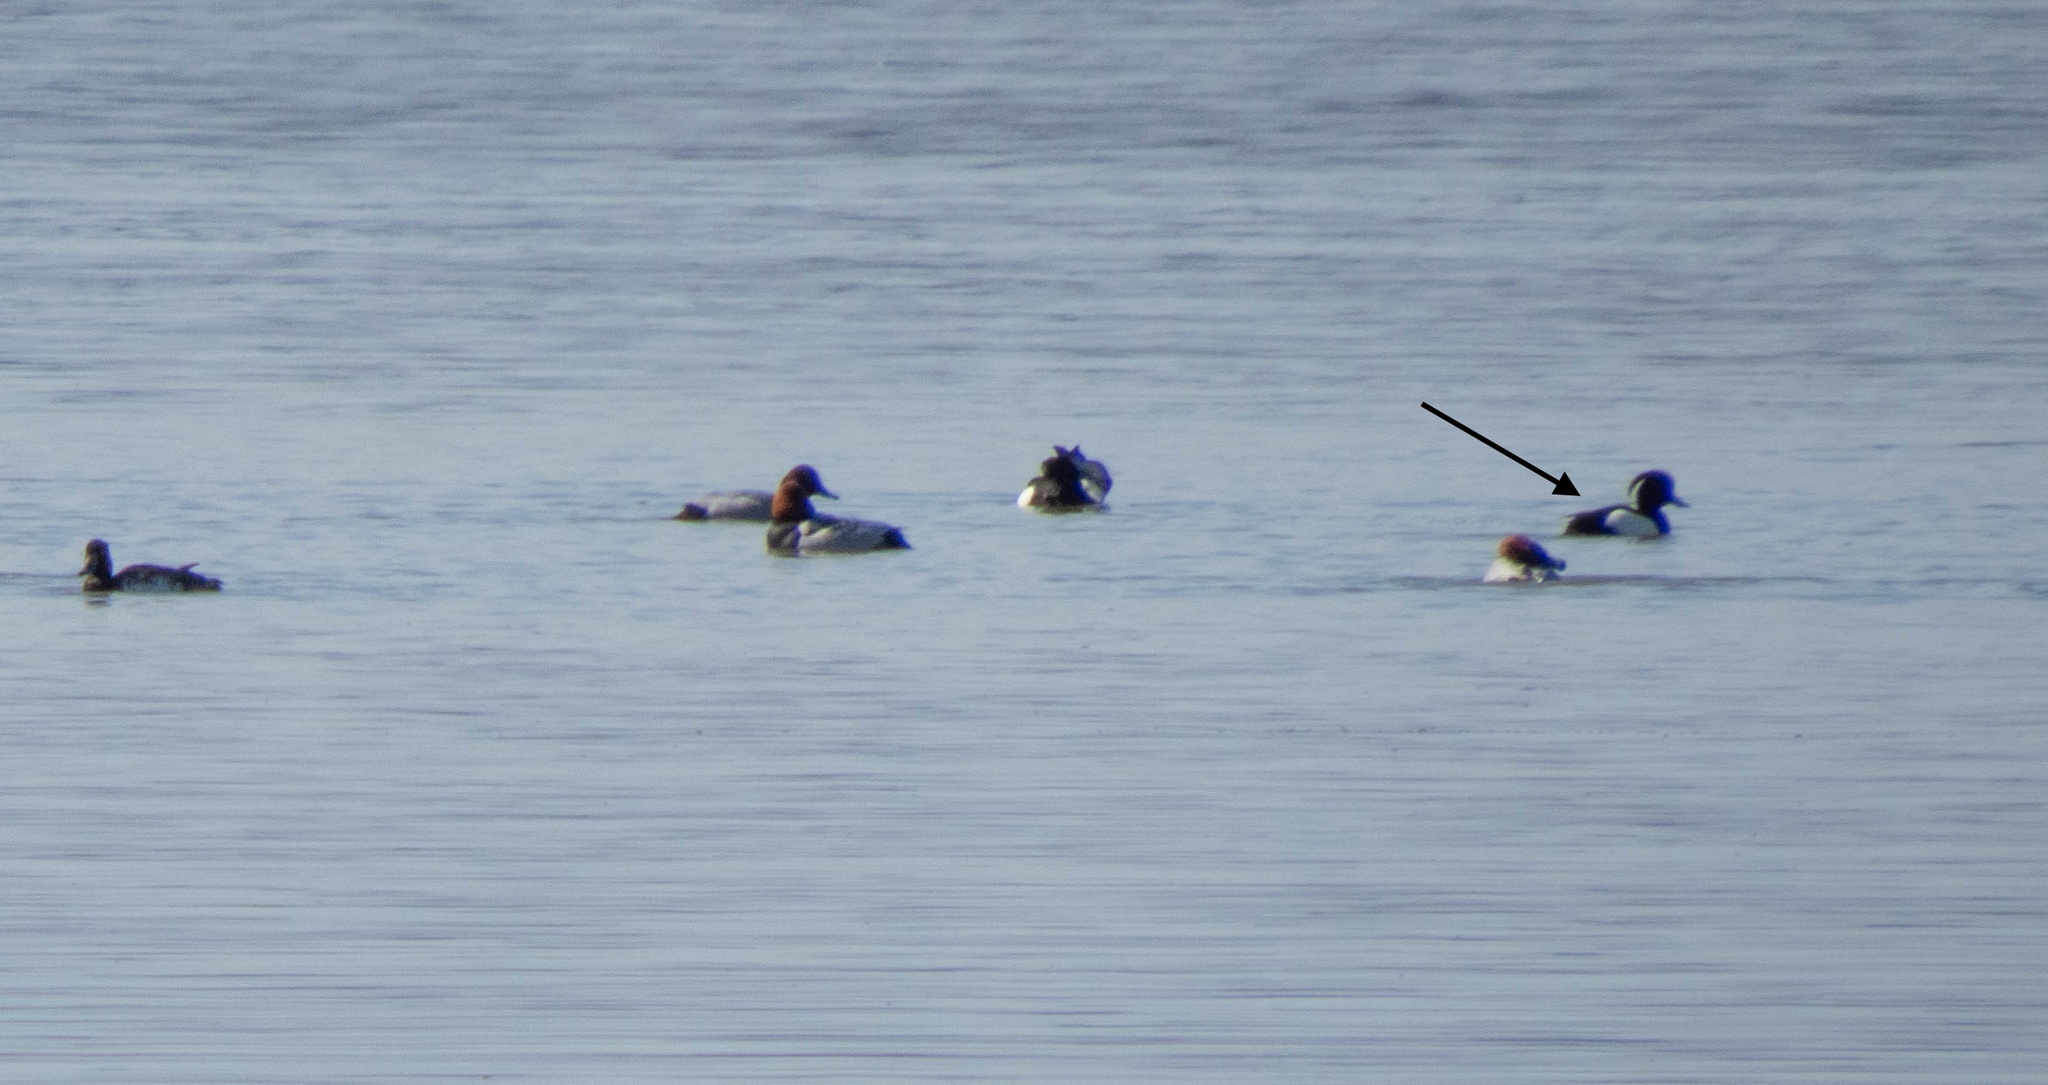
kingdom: Animalia
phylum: Chordata
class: Aves
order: Anseriformes
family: Anatidae
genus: Aythya
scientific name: Aythya fuligula
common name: Tufted duck
